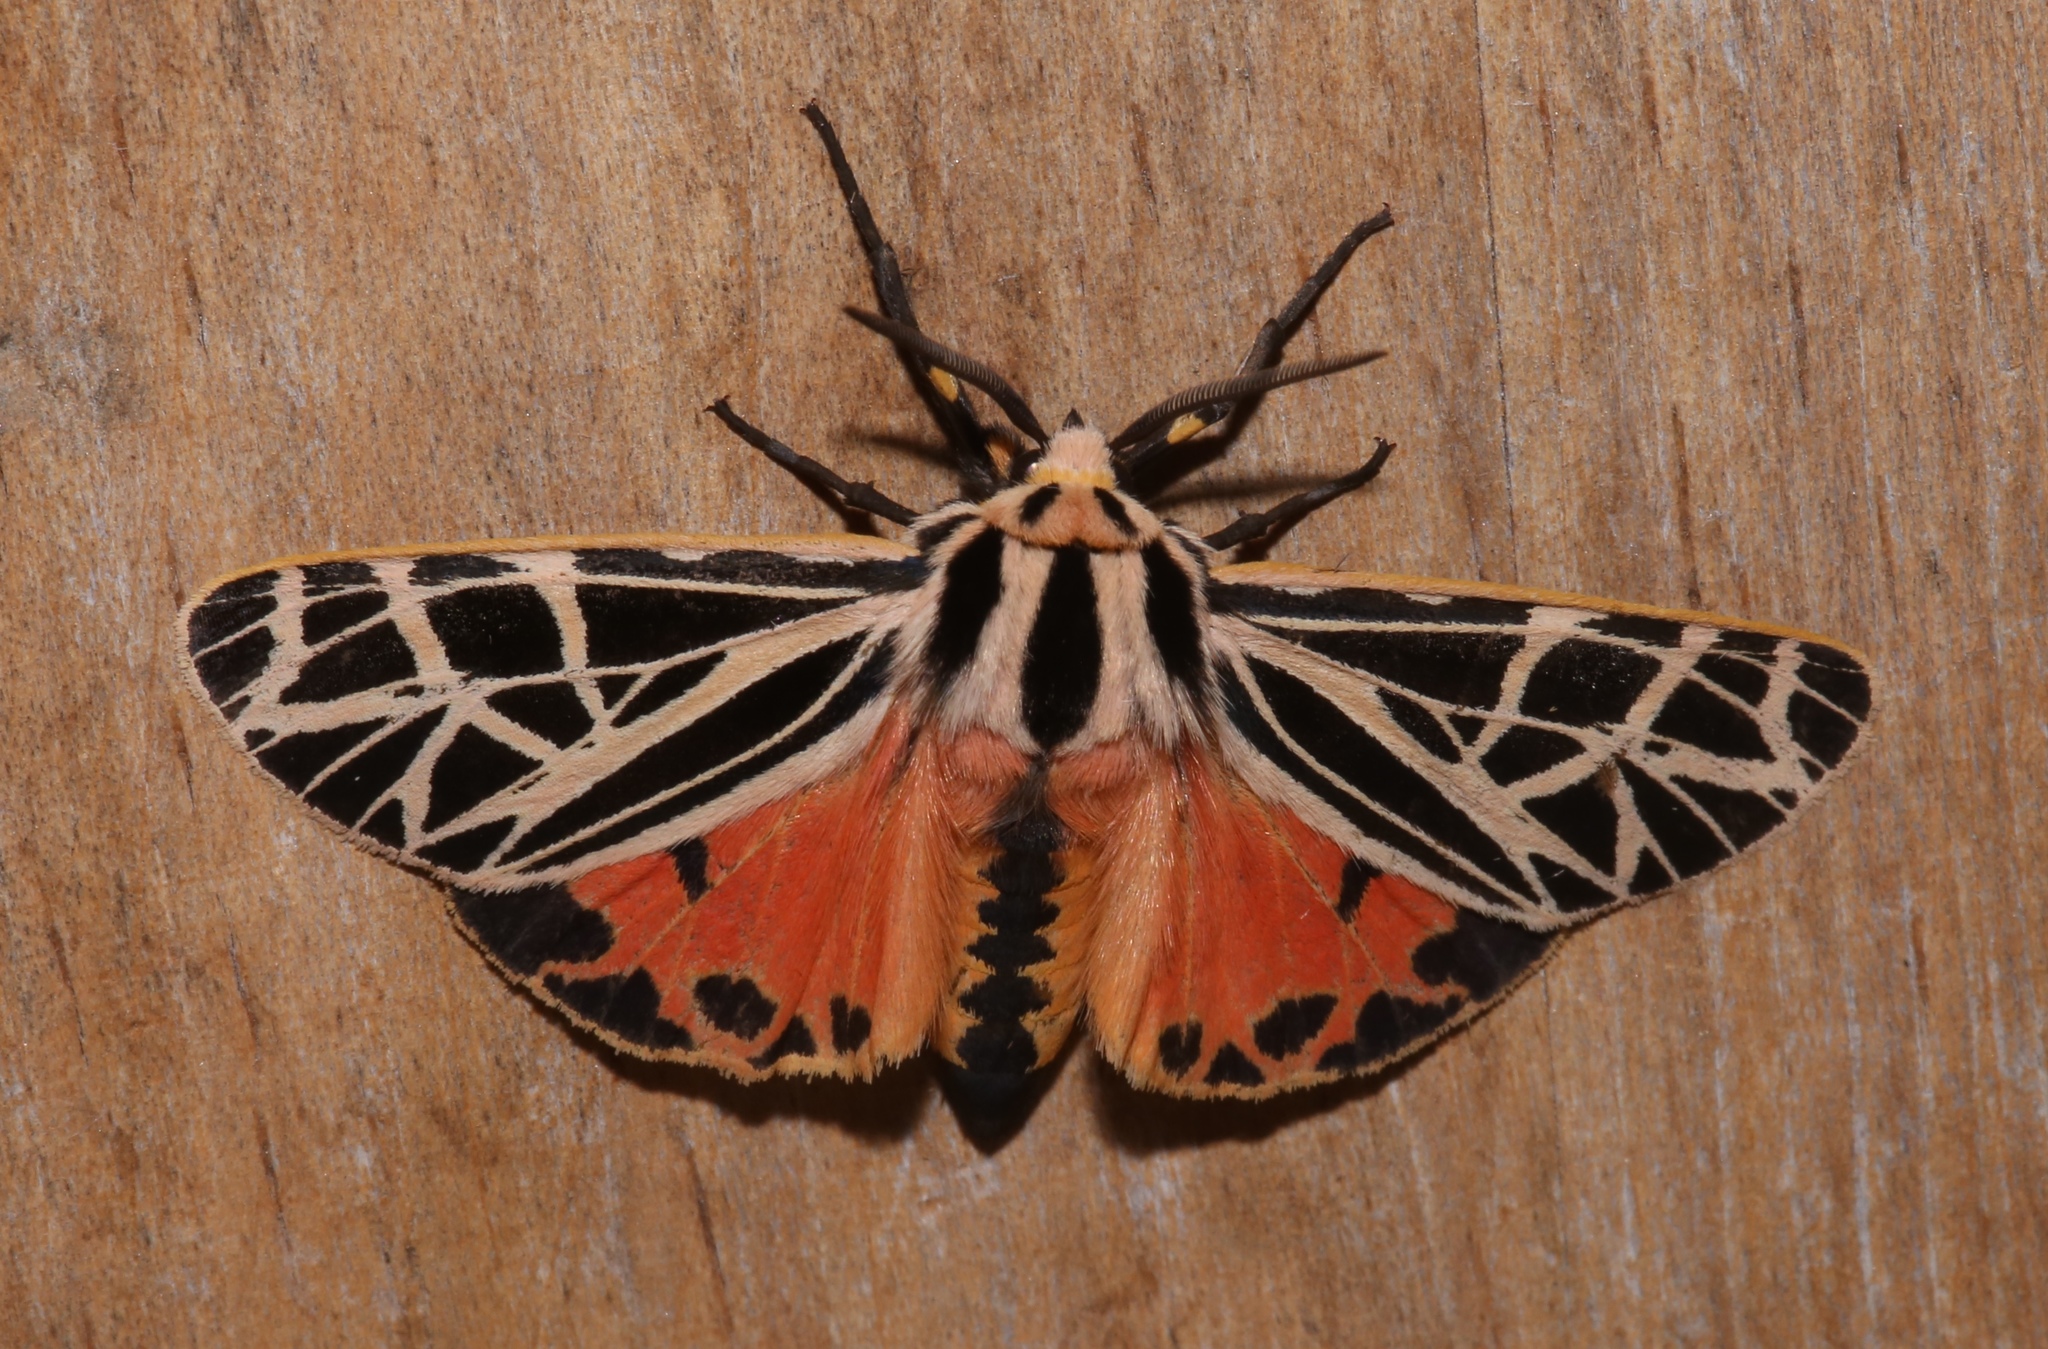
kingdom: Animalia
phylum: Arthropoda
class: Insecta
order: Lepidoptera
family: Erebidae
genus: Grammia
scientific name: Grammia parthenice
